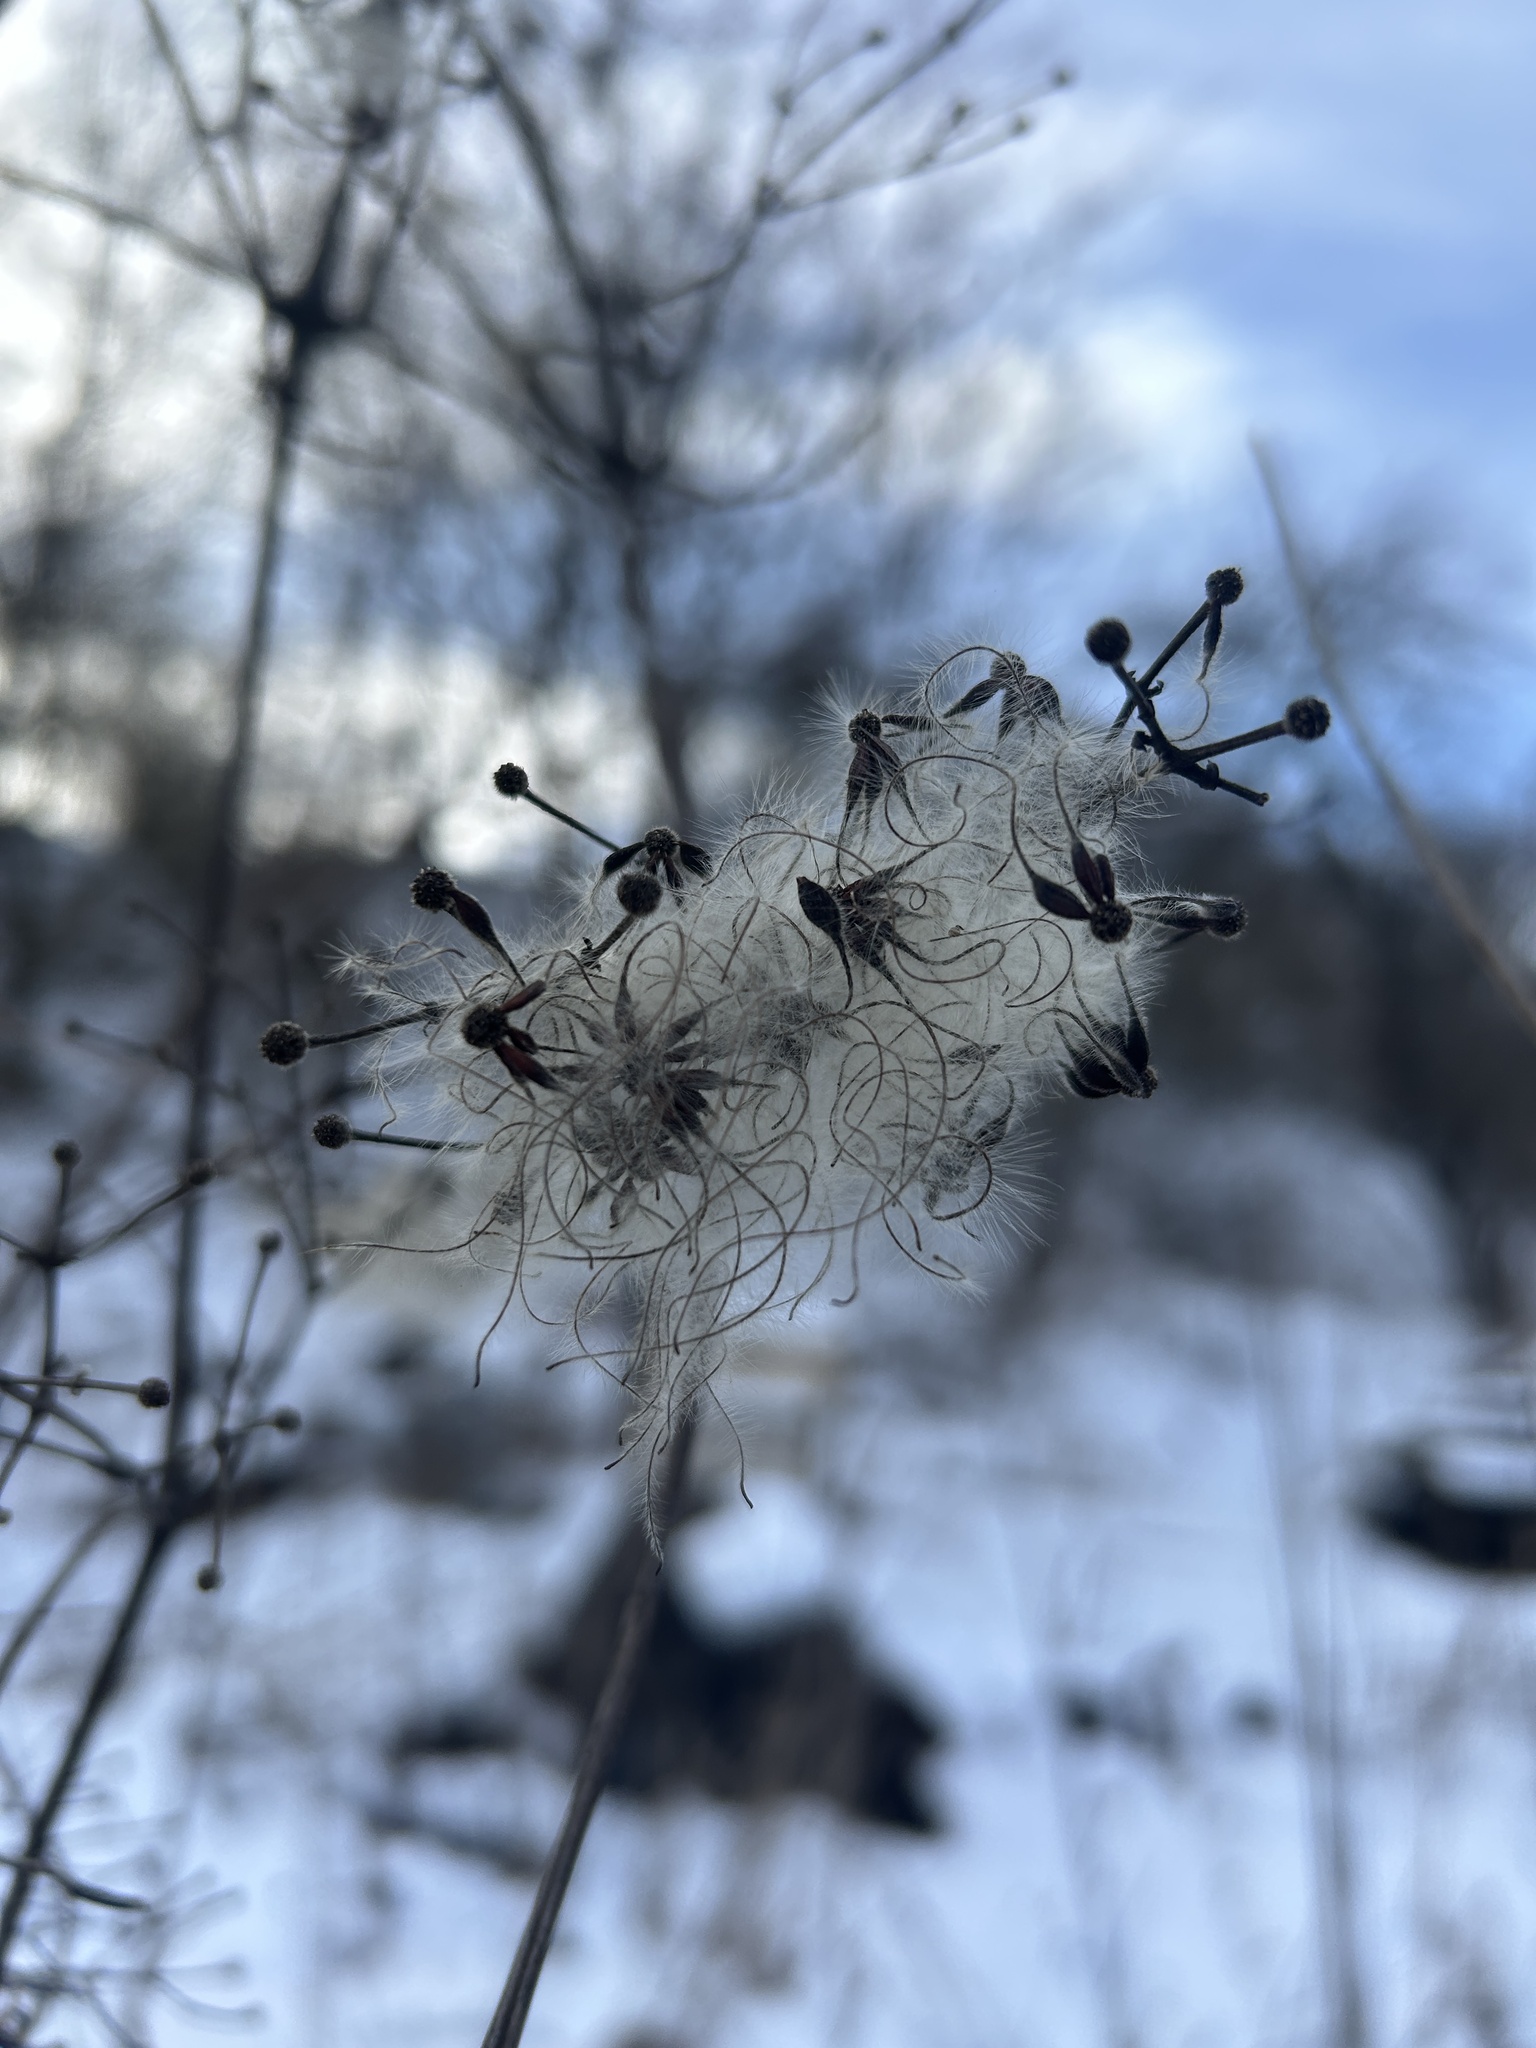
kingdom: Plantae
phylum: Tracheophyta
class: Magnoliopsida
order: Ranunculales
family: Ranunculaceae
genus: Clematis
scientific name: Clematis vitalba
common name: Evergreen clematis
